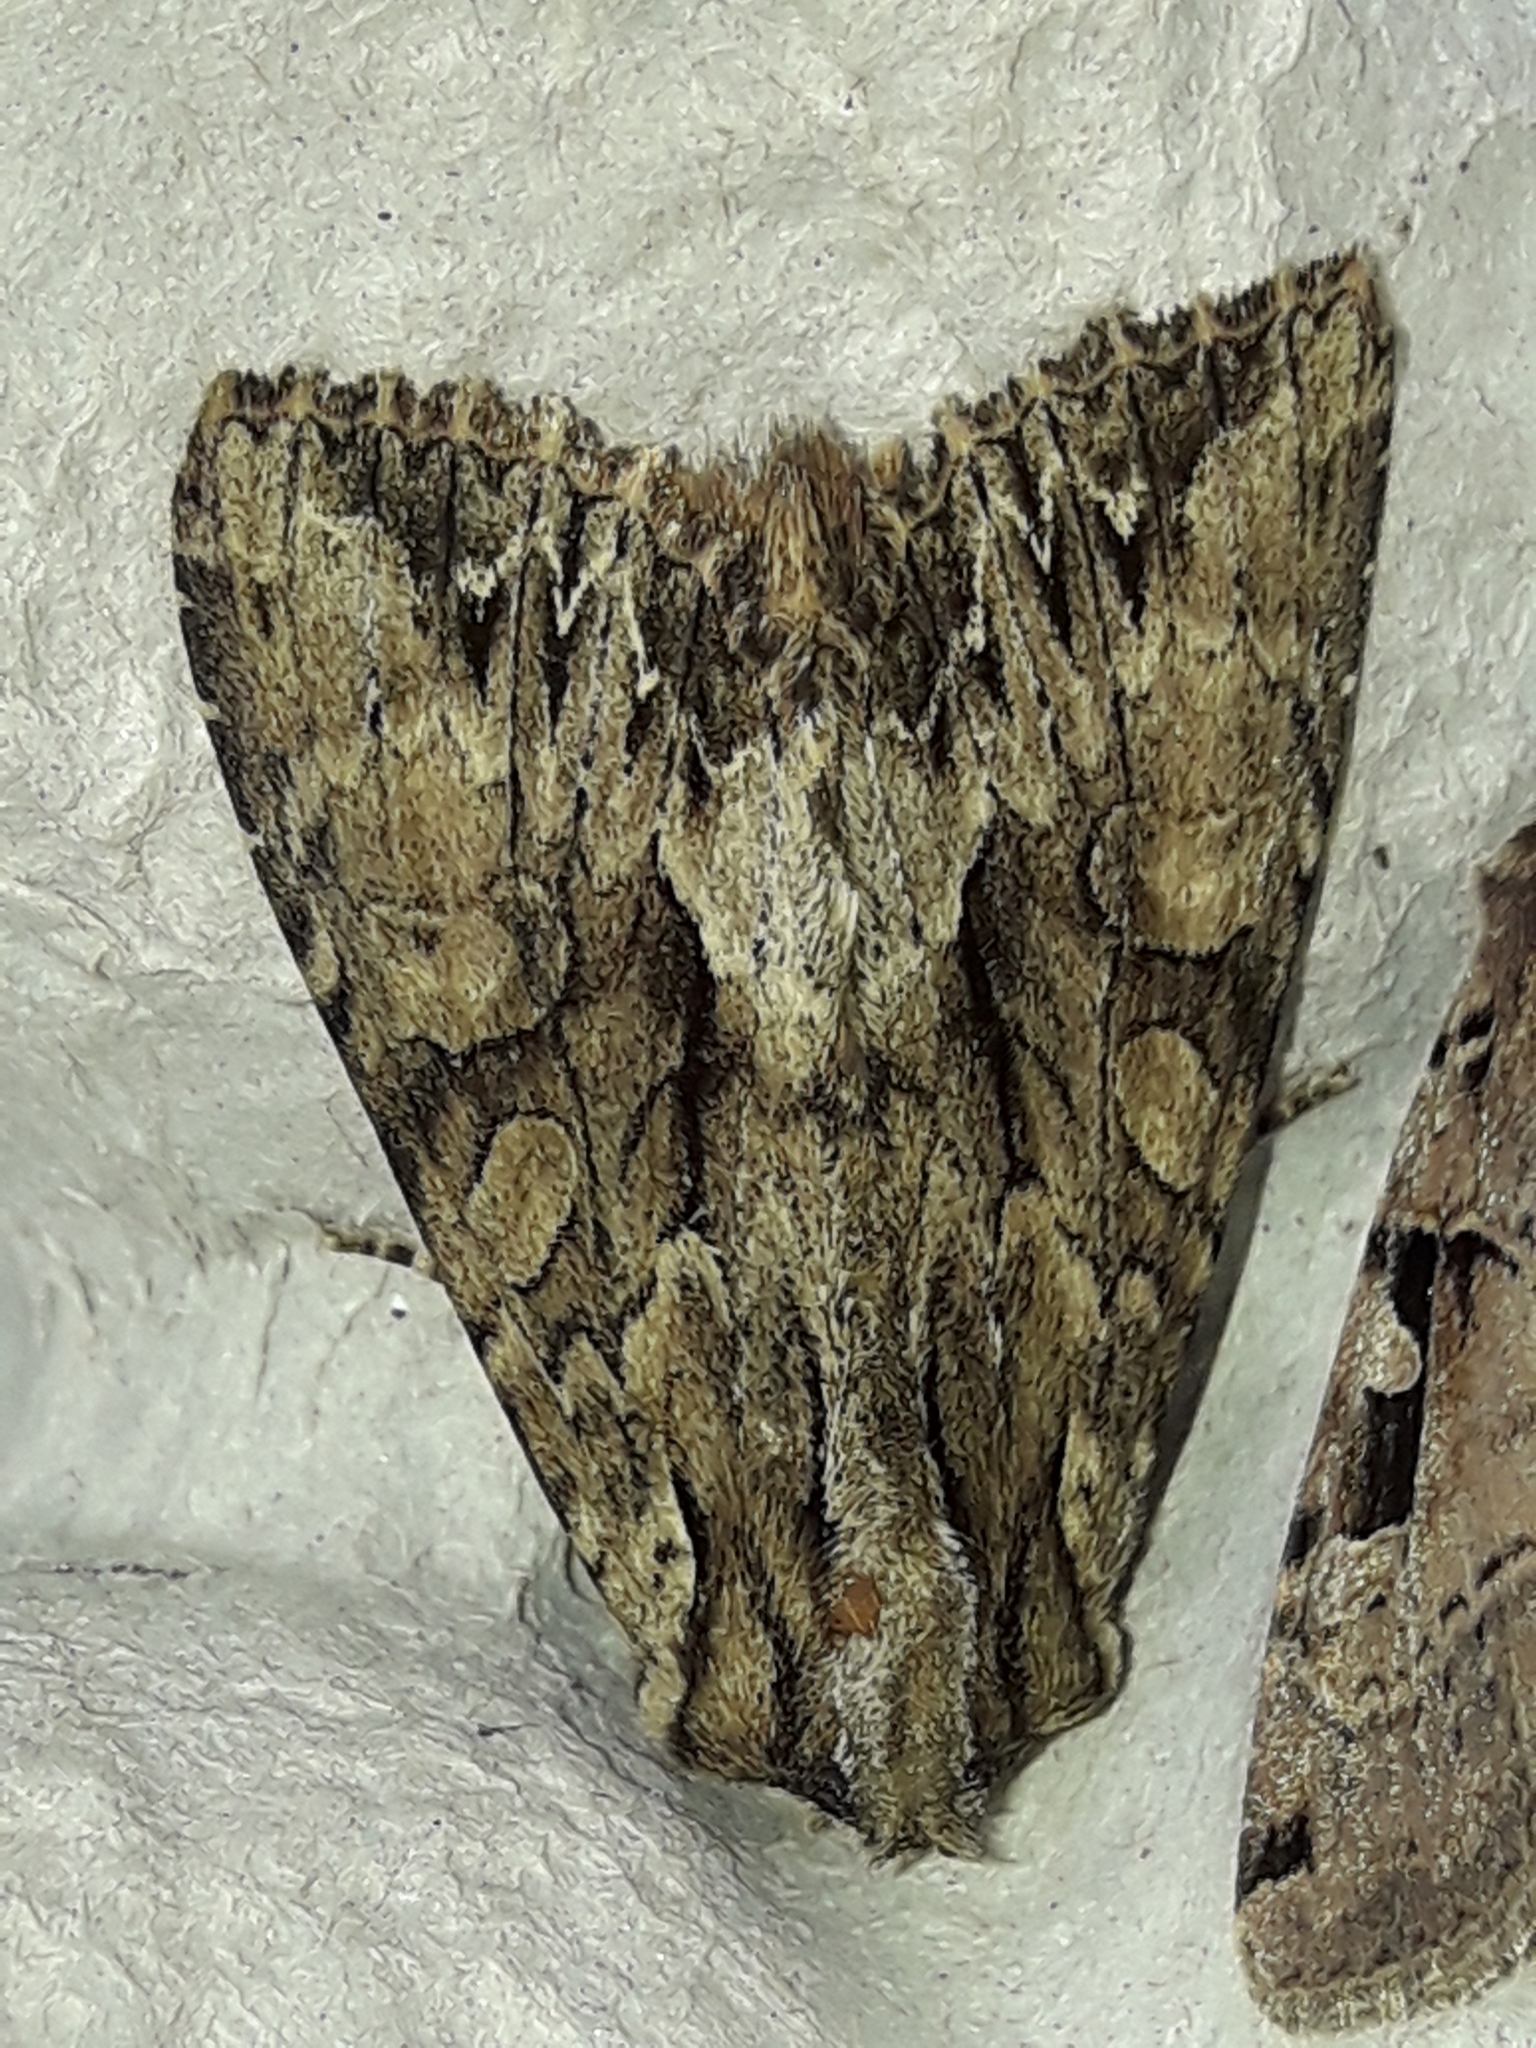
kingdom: Animalia
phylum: Arthropoda
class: Insecta
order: Lepidoptera
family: Noctuidae
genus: Apamea
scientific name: Apamea monoglypha
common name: Dark arches
